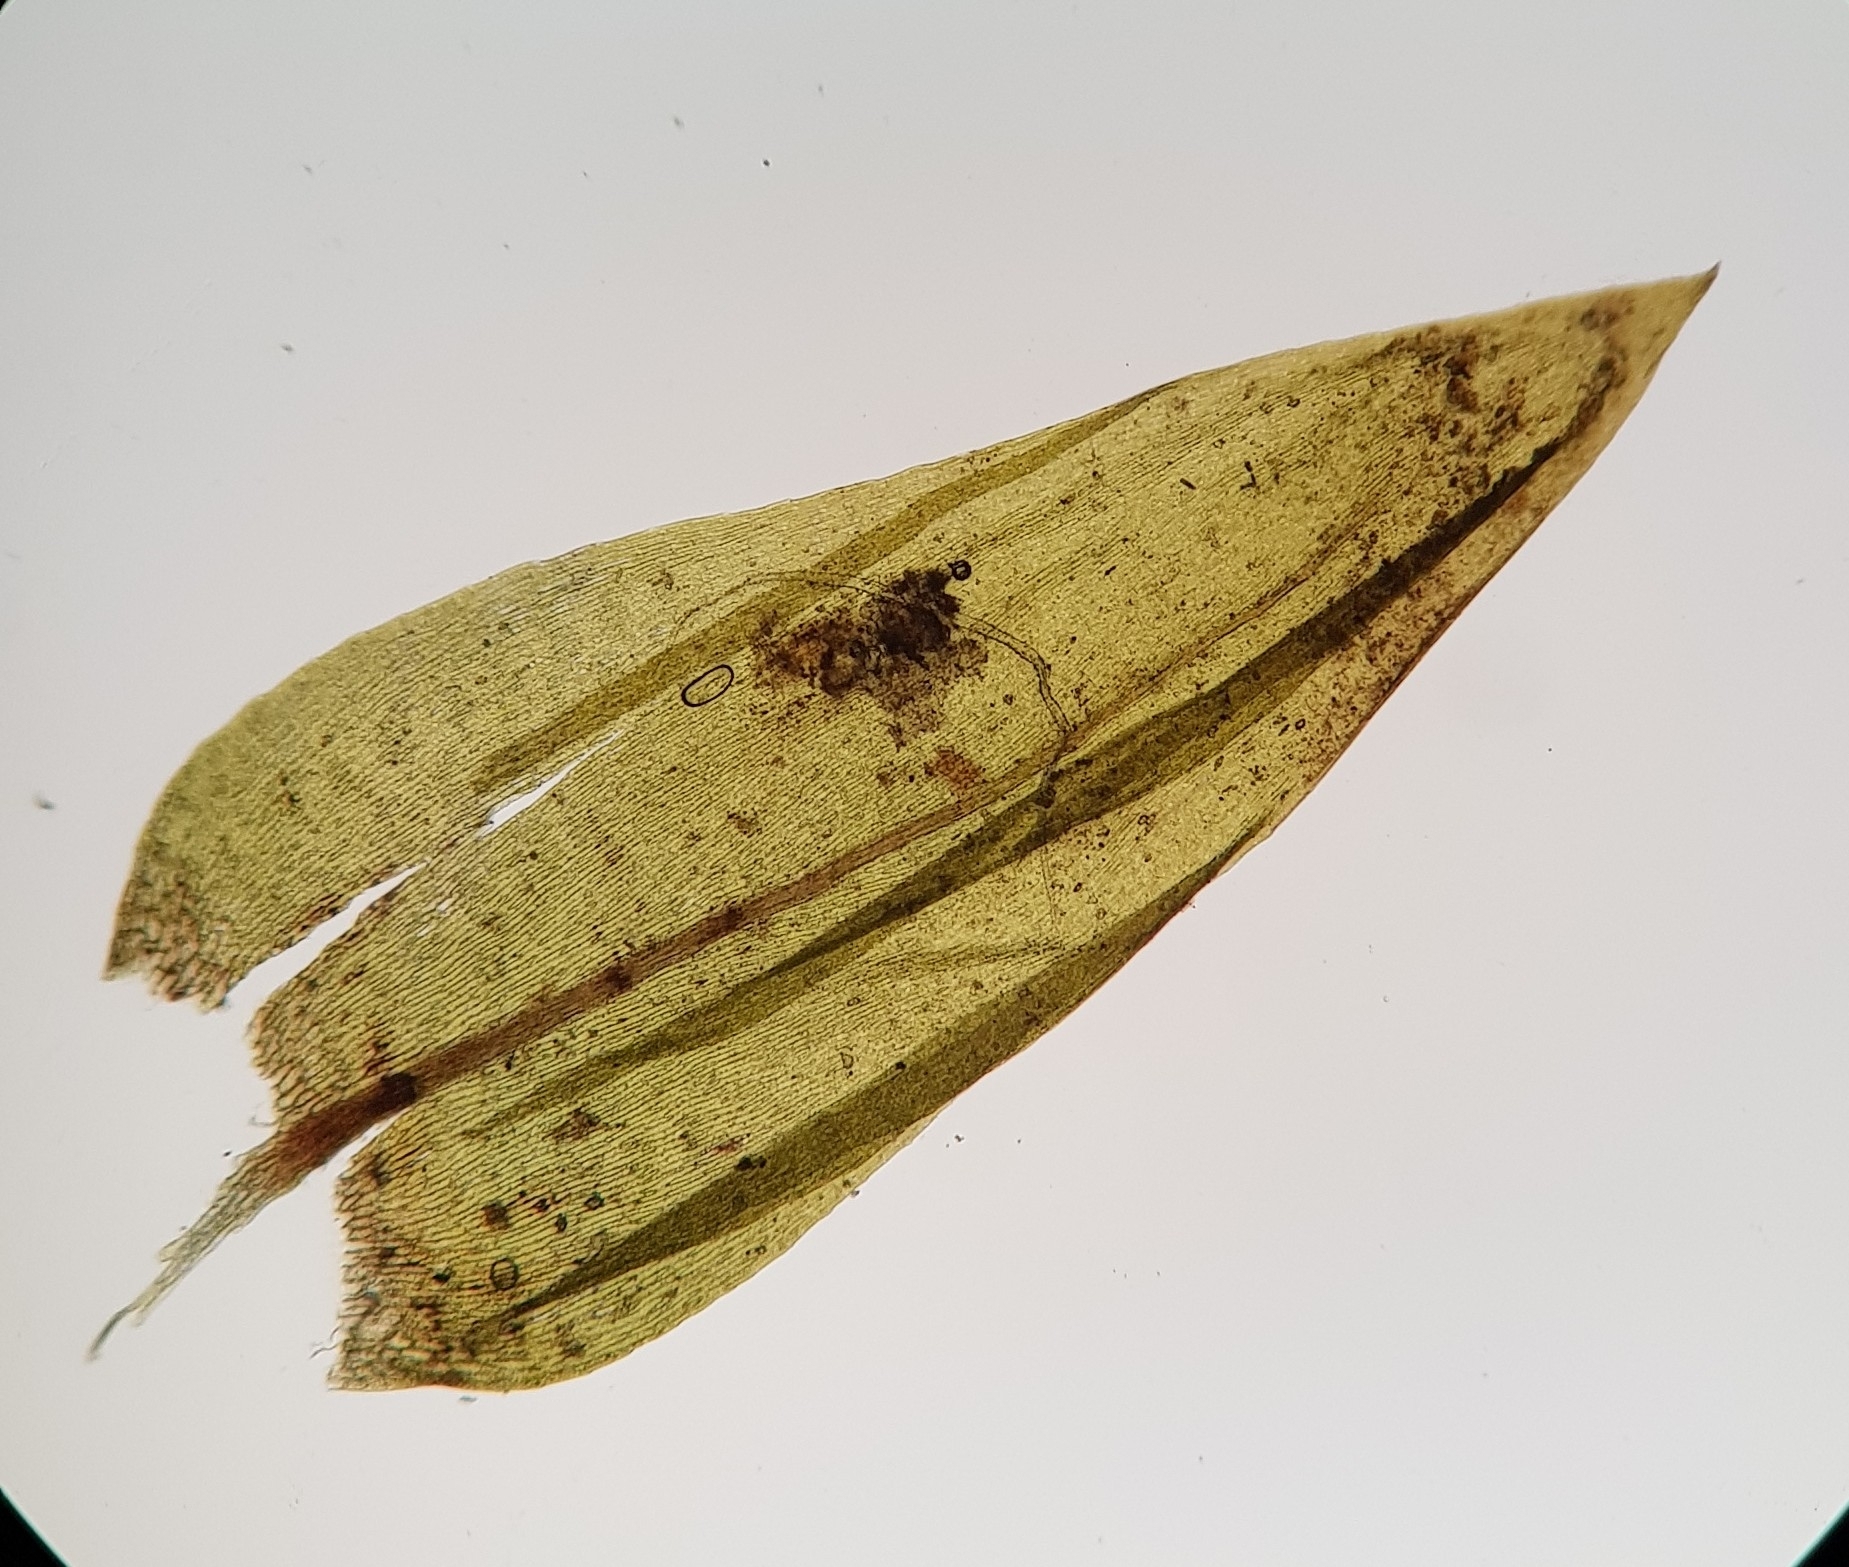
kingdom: Plantae
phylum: Bryophyta
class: Bryopsida
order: Hypnales
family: Brachytheciaceae
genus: Brachythecium
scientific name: Brachythecium rivulare
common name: River ragged moss
